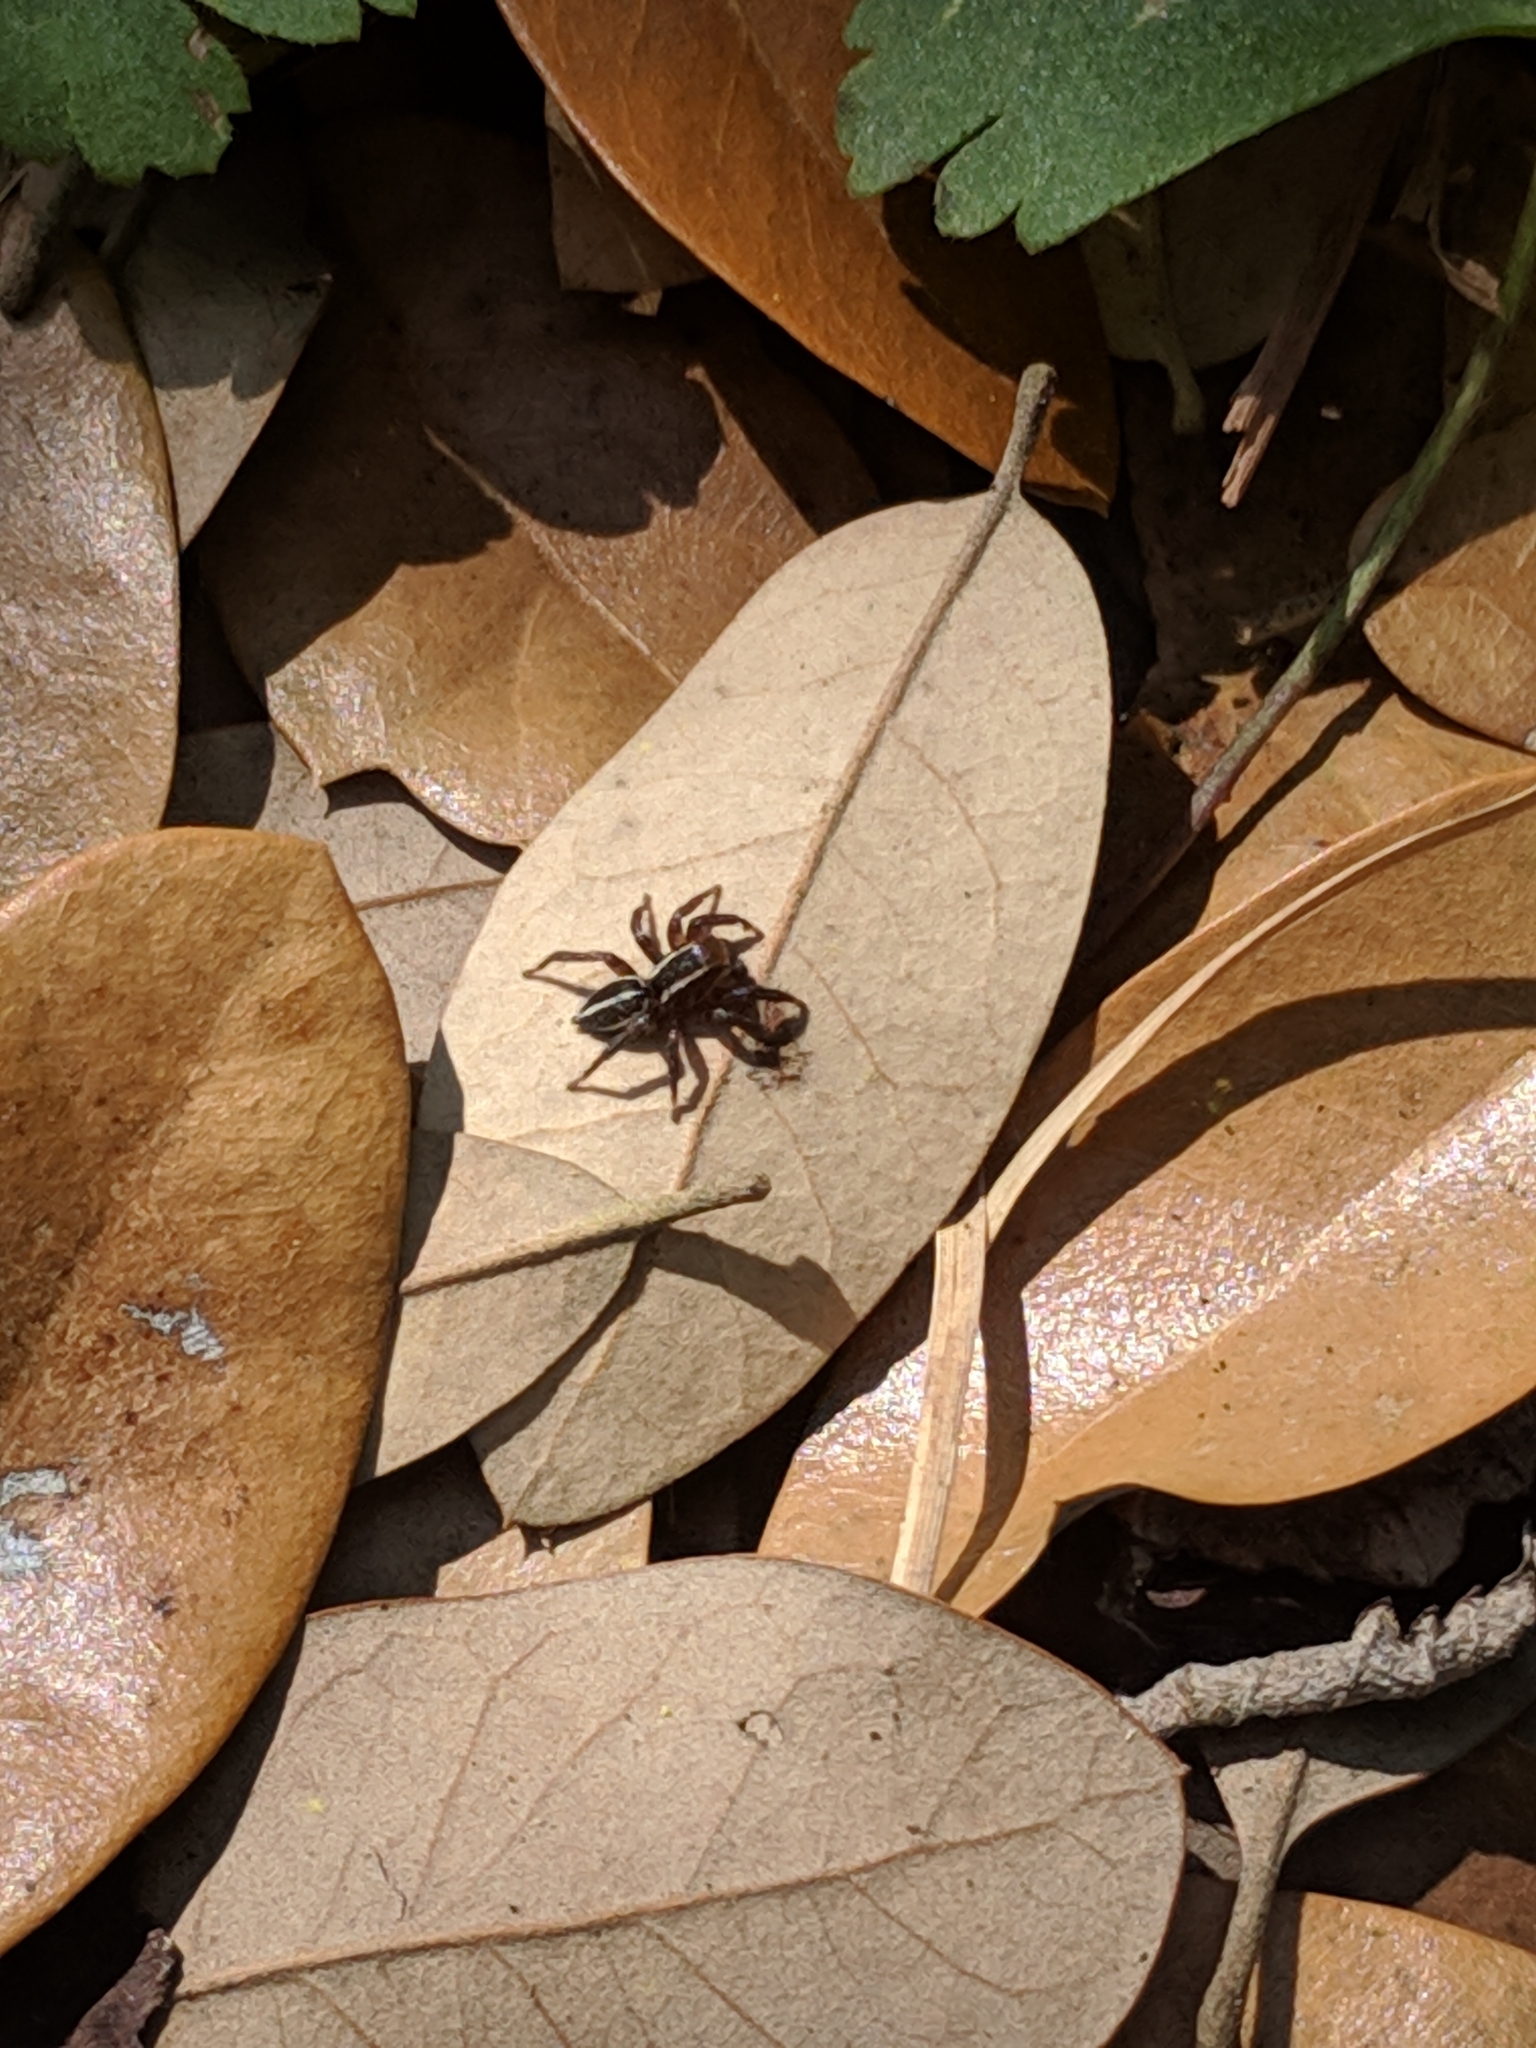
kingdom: Animalia
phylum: Arthropoda
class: Arachnida
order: Araneae
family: Salticidae
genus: Phlegra
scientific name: Phlegra hentzi
